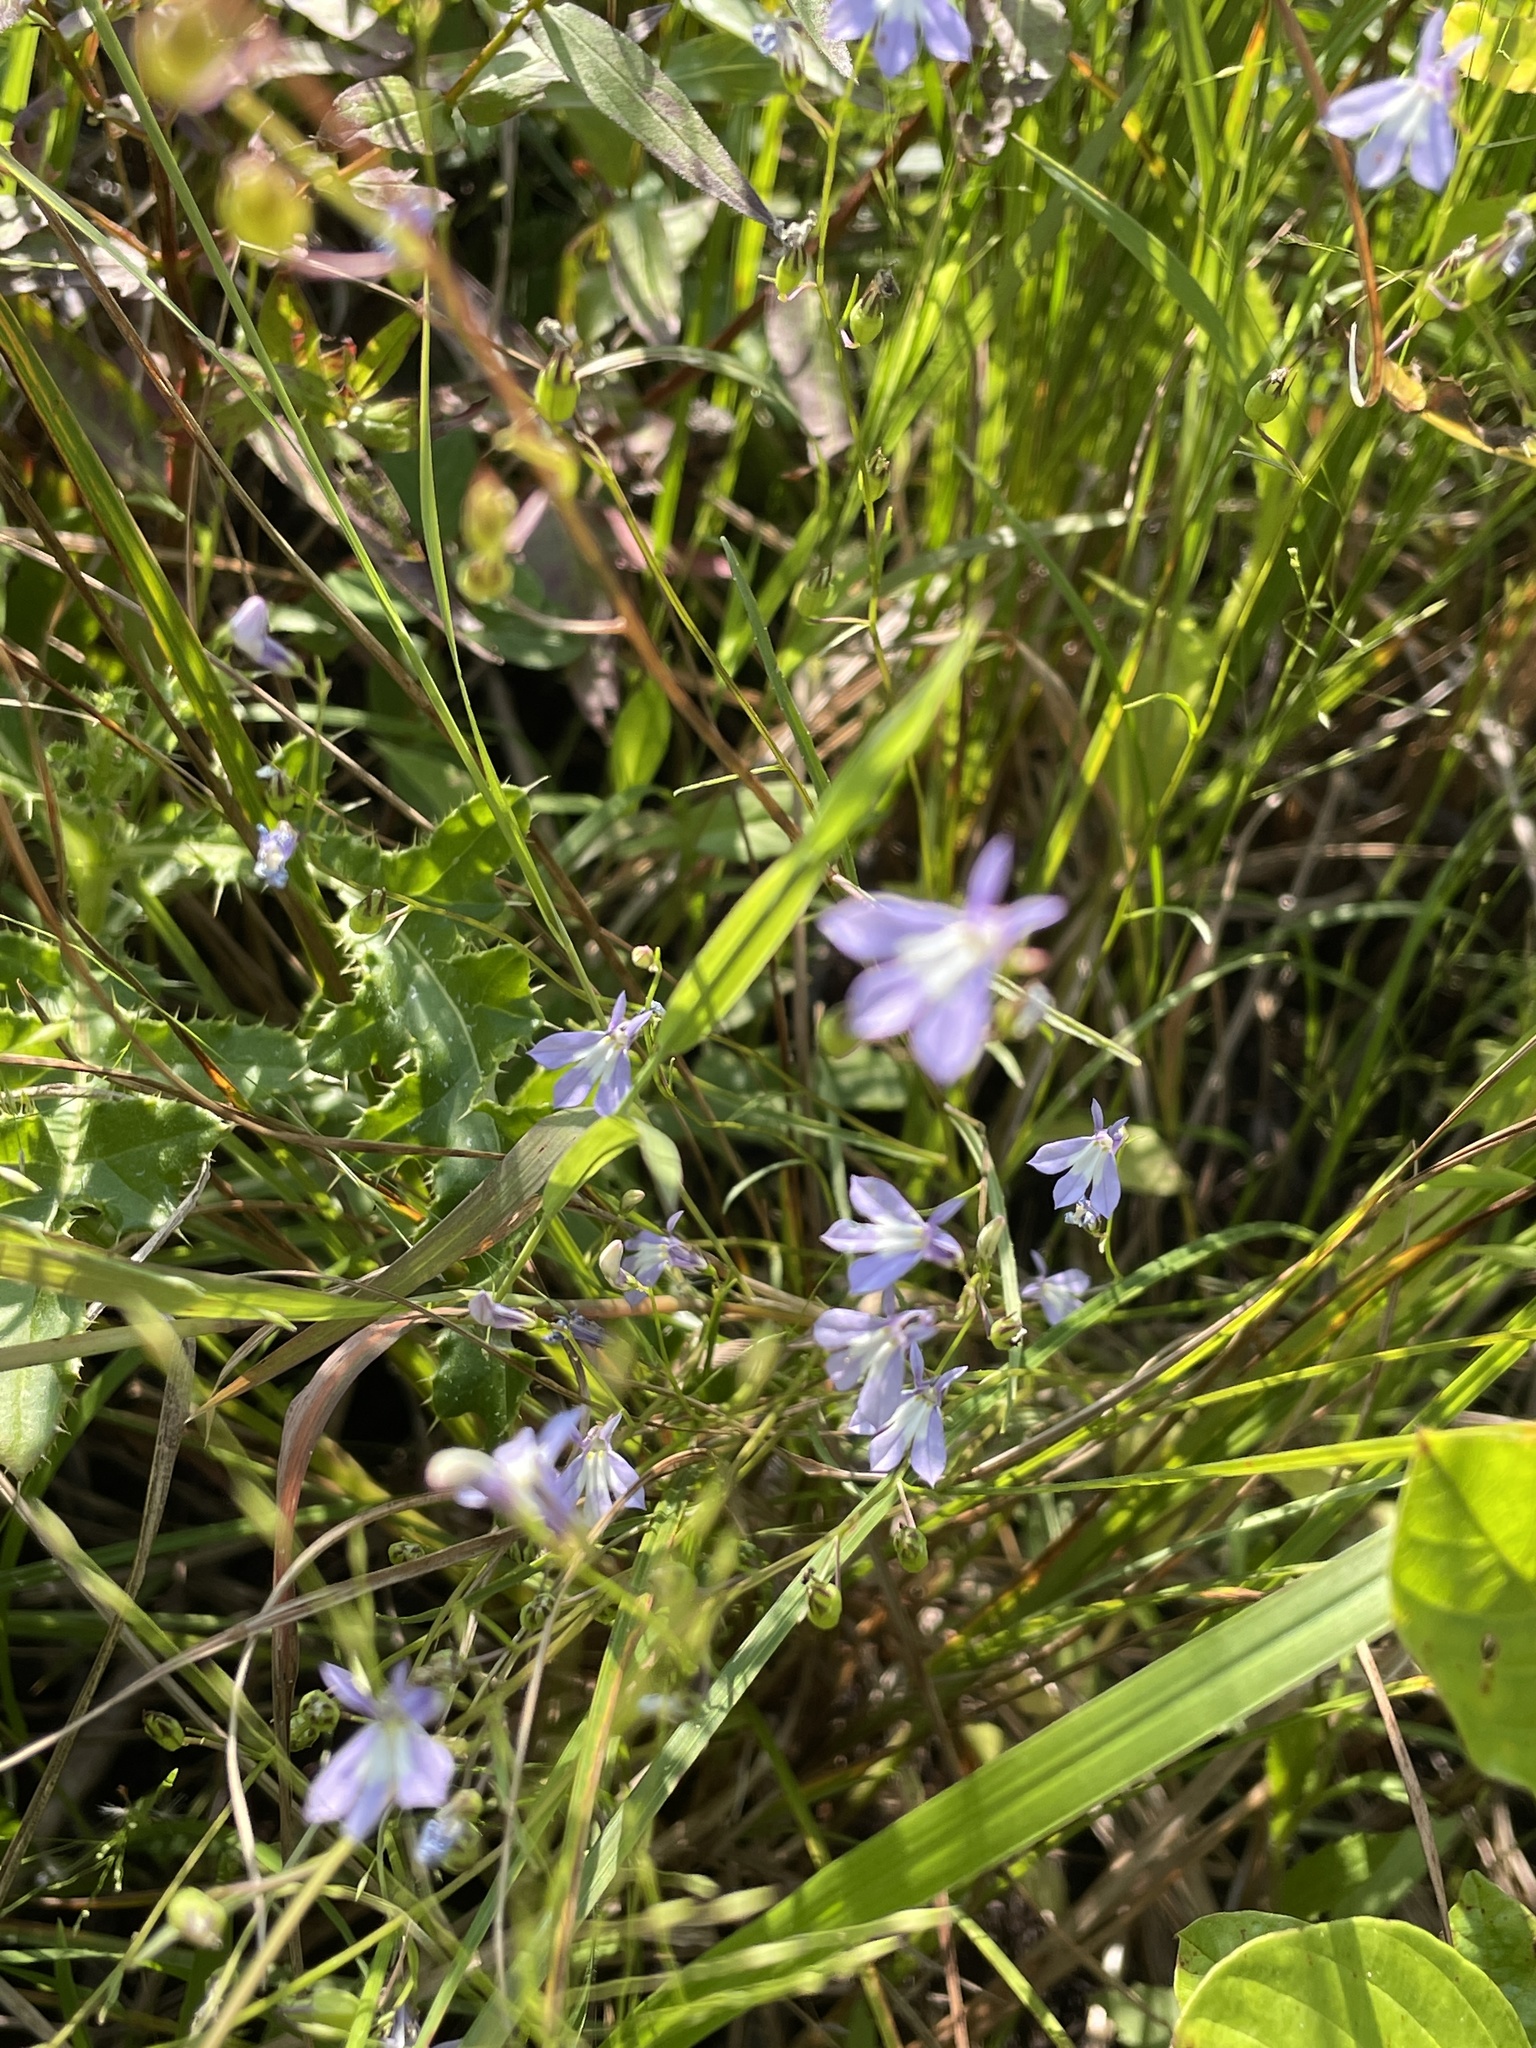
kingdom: Plantae
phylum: Tracheophyta
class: Magnoliopsida
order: Asterales
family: Campanulaceae
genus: Lobelia
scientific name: Lobelia kalmii
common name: Kalm's lobelia
